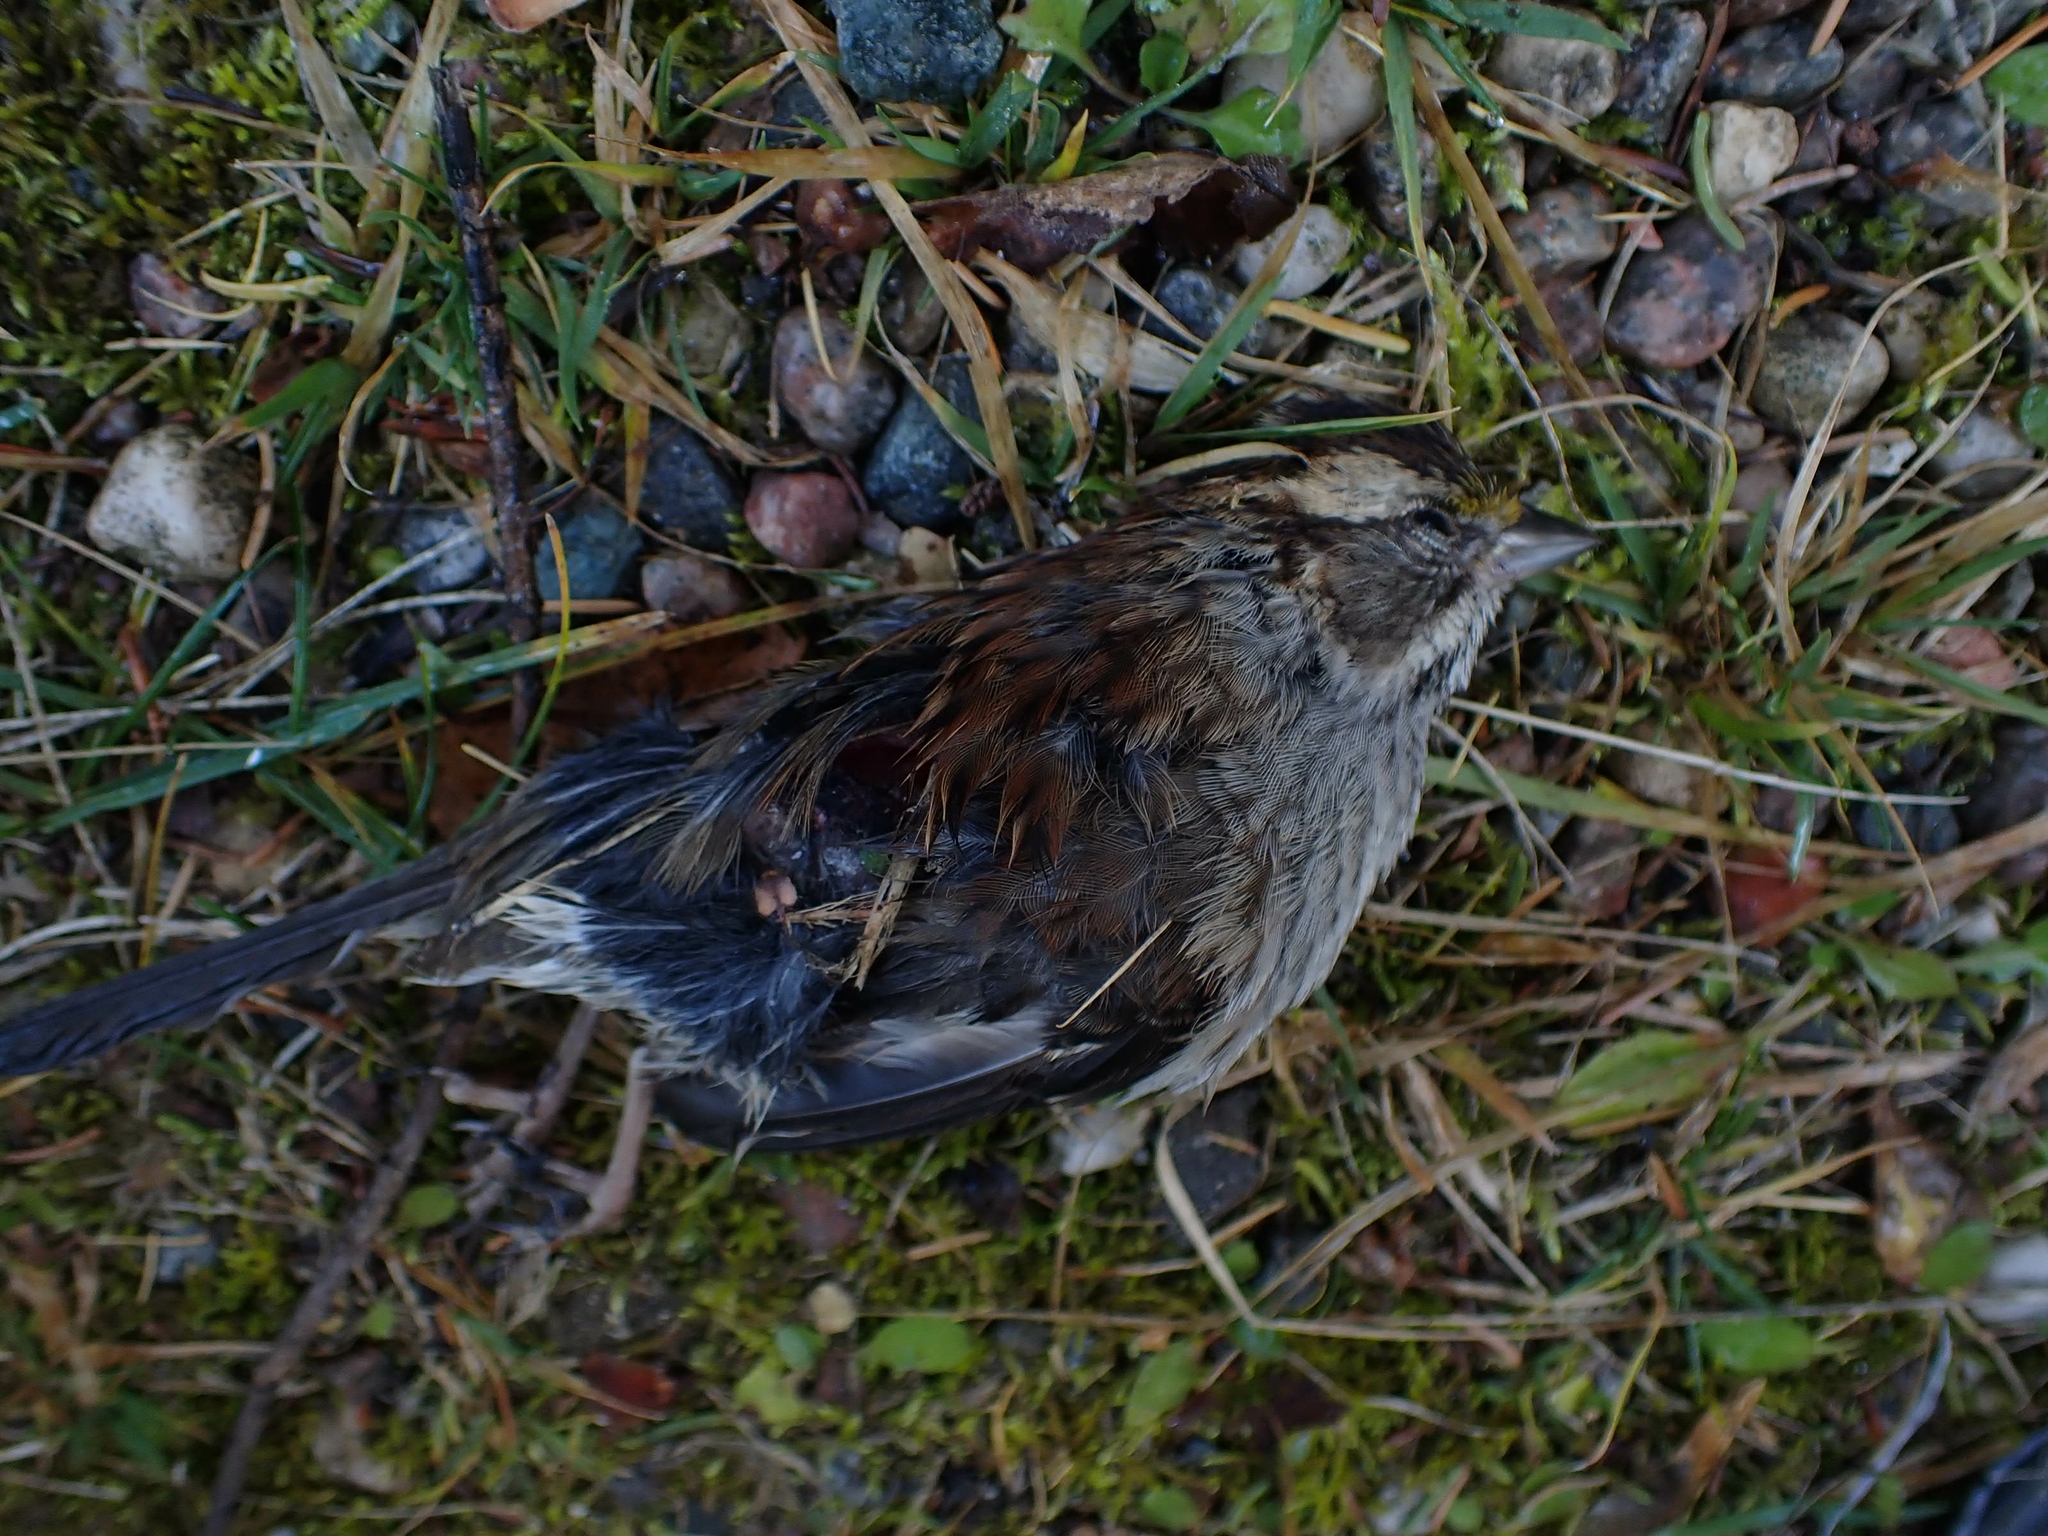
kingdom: Animalia
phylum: Chordata
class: Aves
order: Passeriformes
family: Passerellidae
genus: Zonotrichia
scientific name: Zonotrichia albicollis
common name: White-throated sparrow
